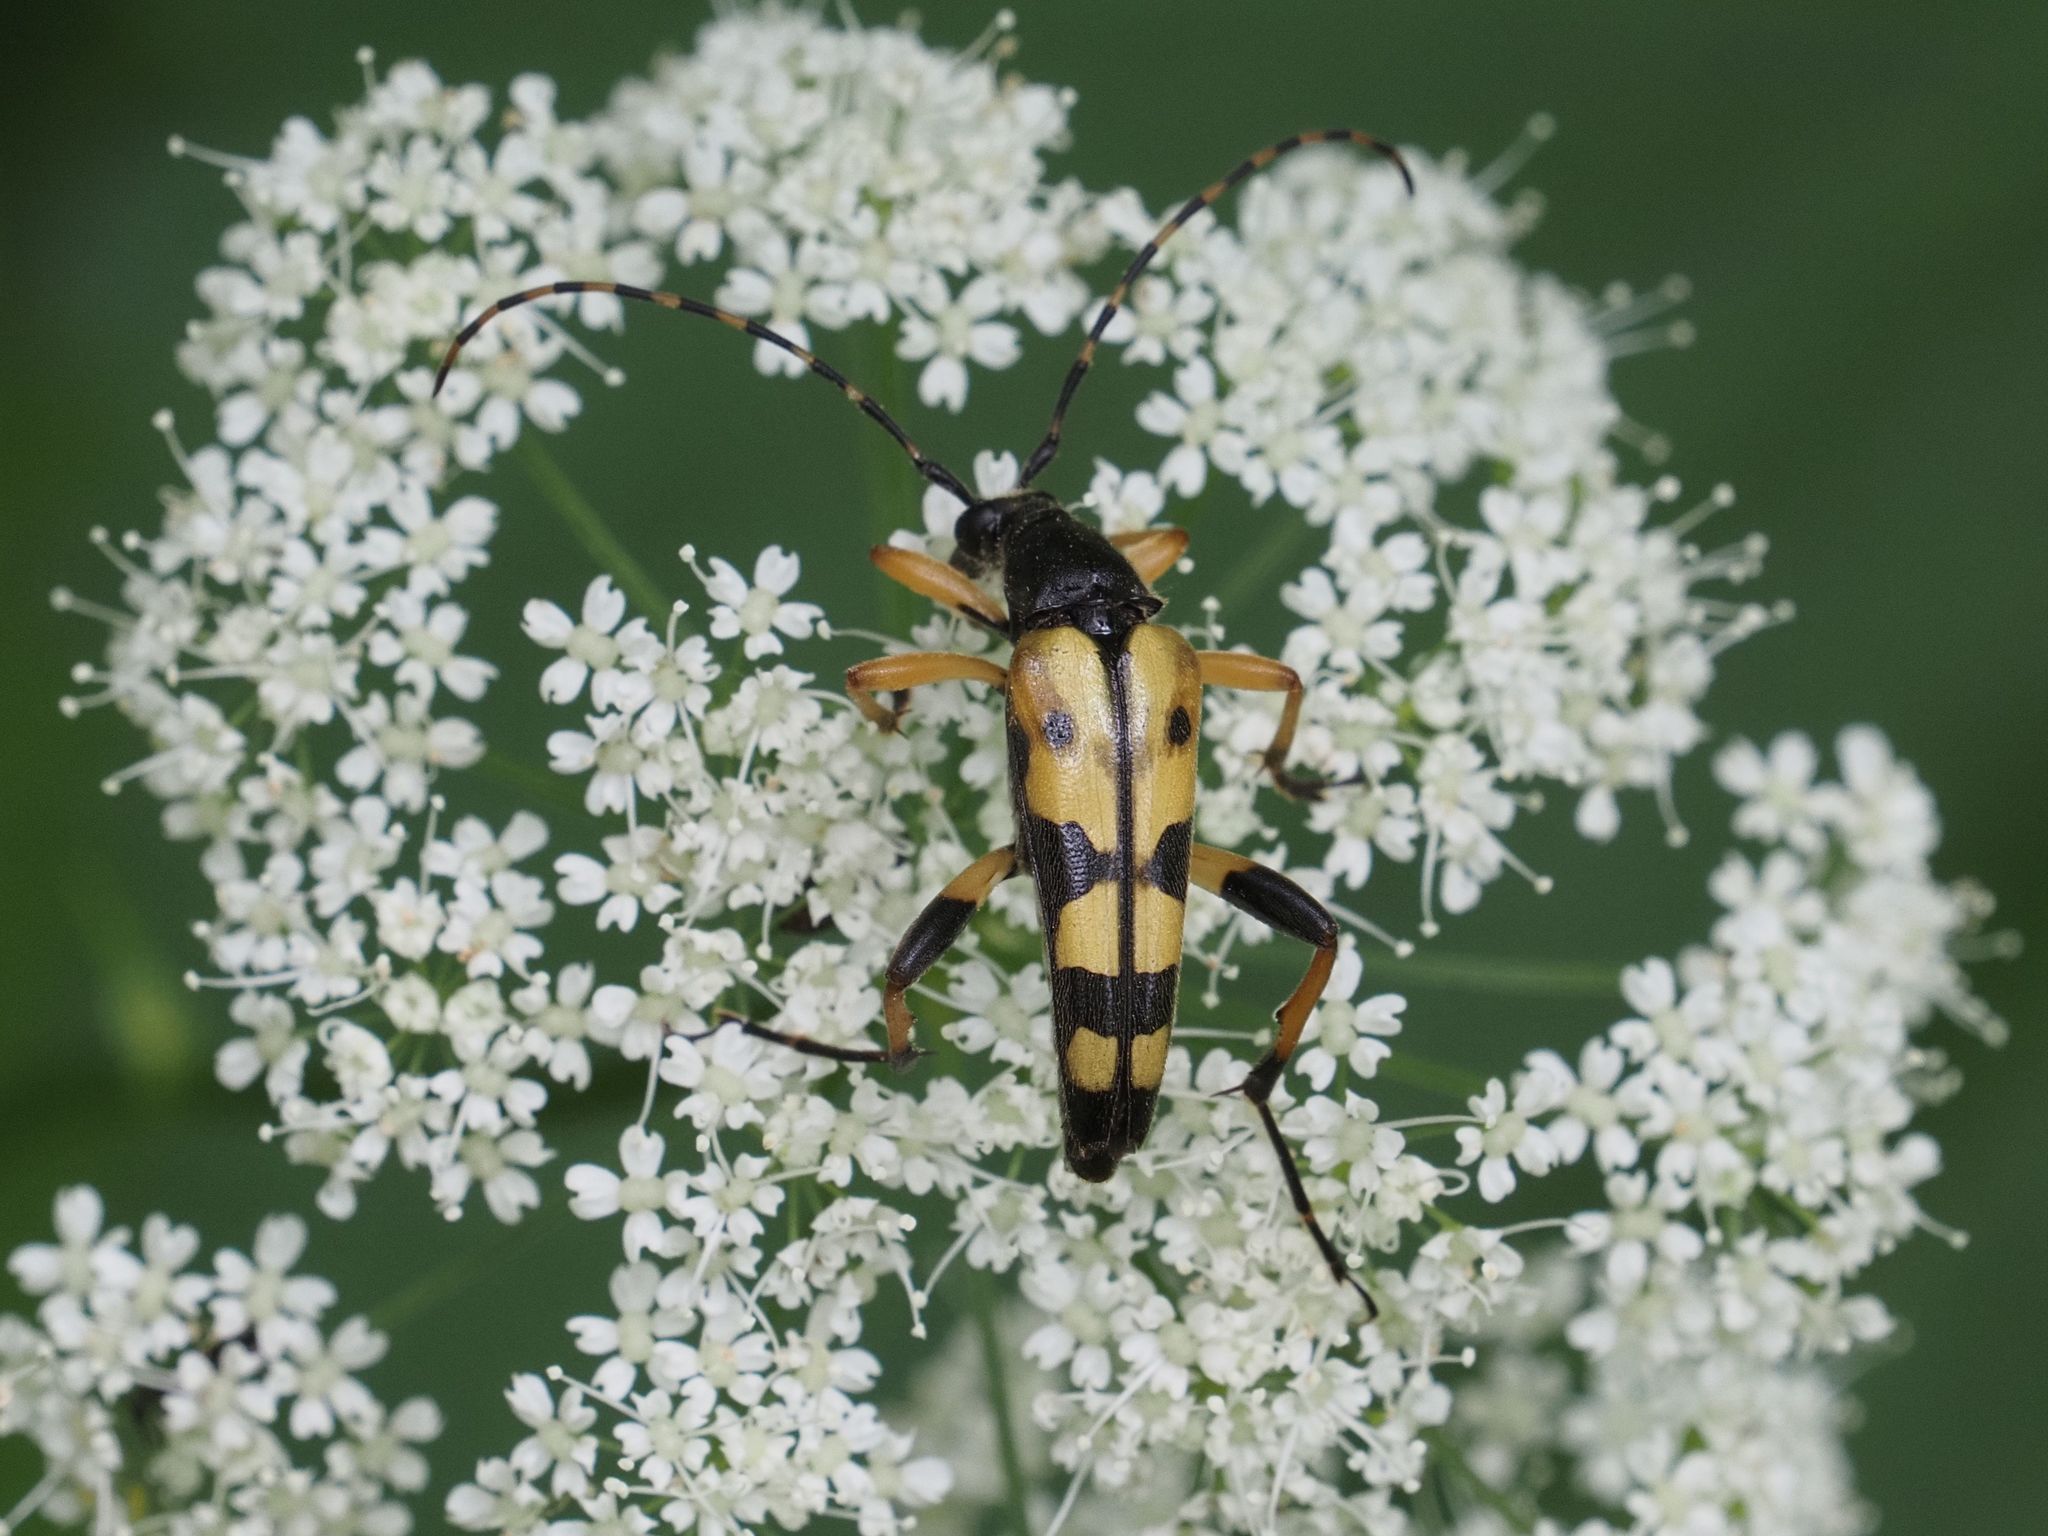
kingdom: Animalia
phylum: Arthropoda
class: Insecta
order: Coleoptera
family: Cerambycidae
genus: Rutpela
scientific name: Rutpela maculata
